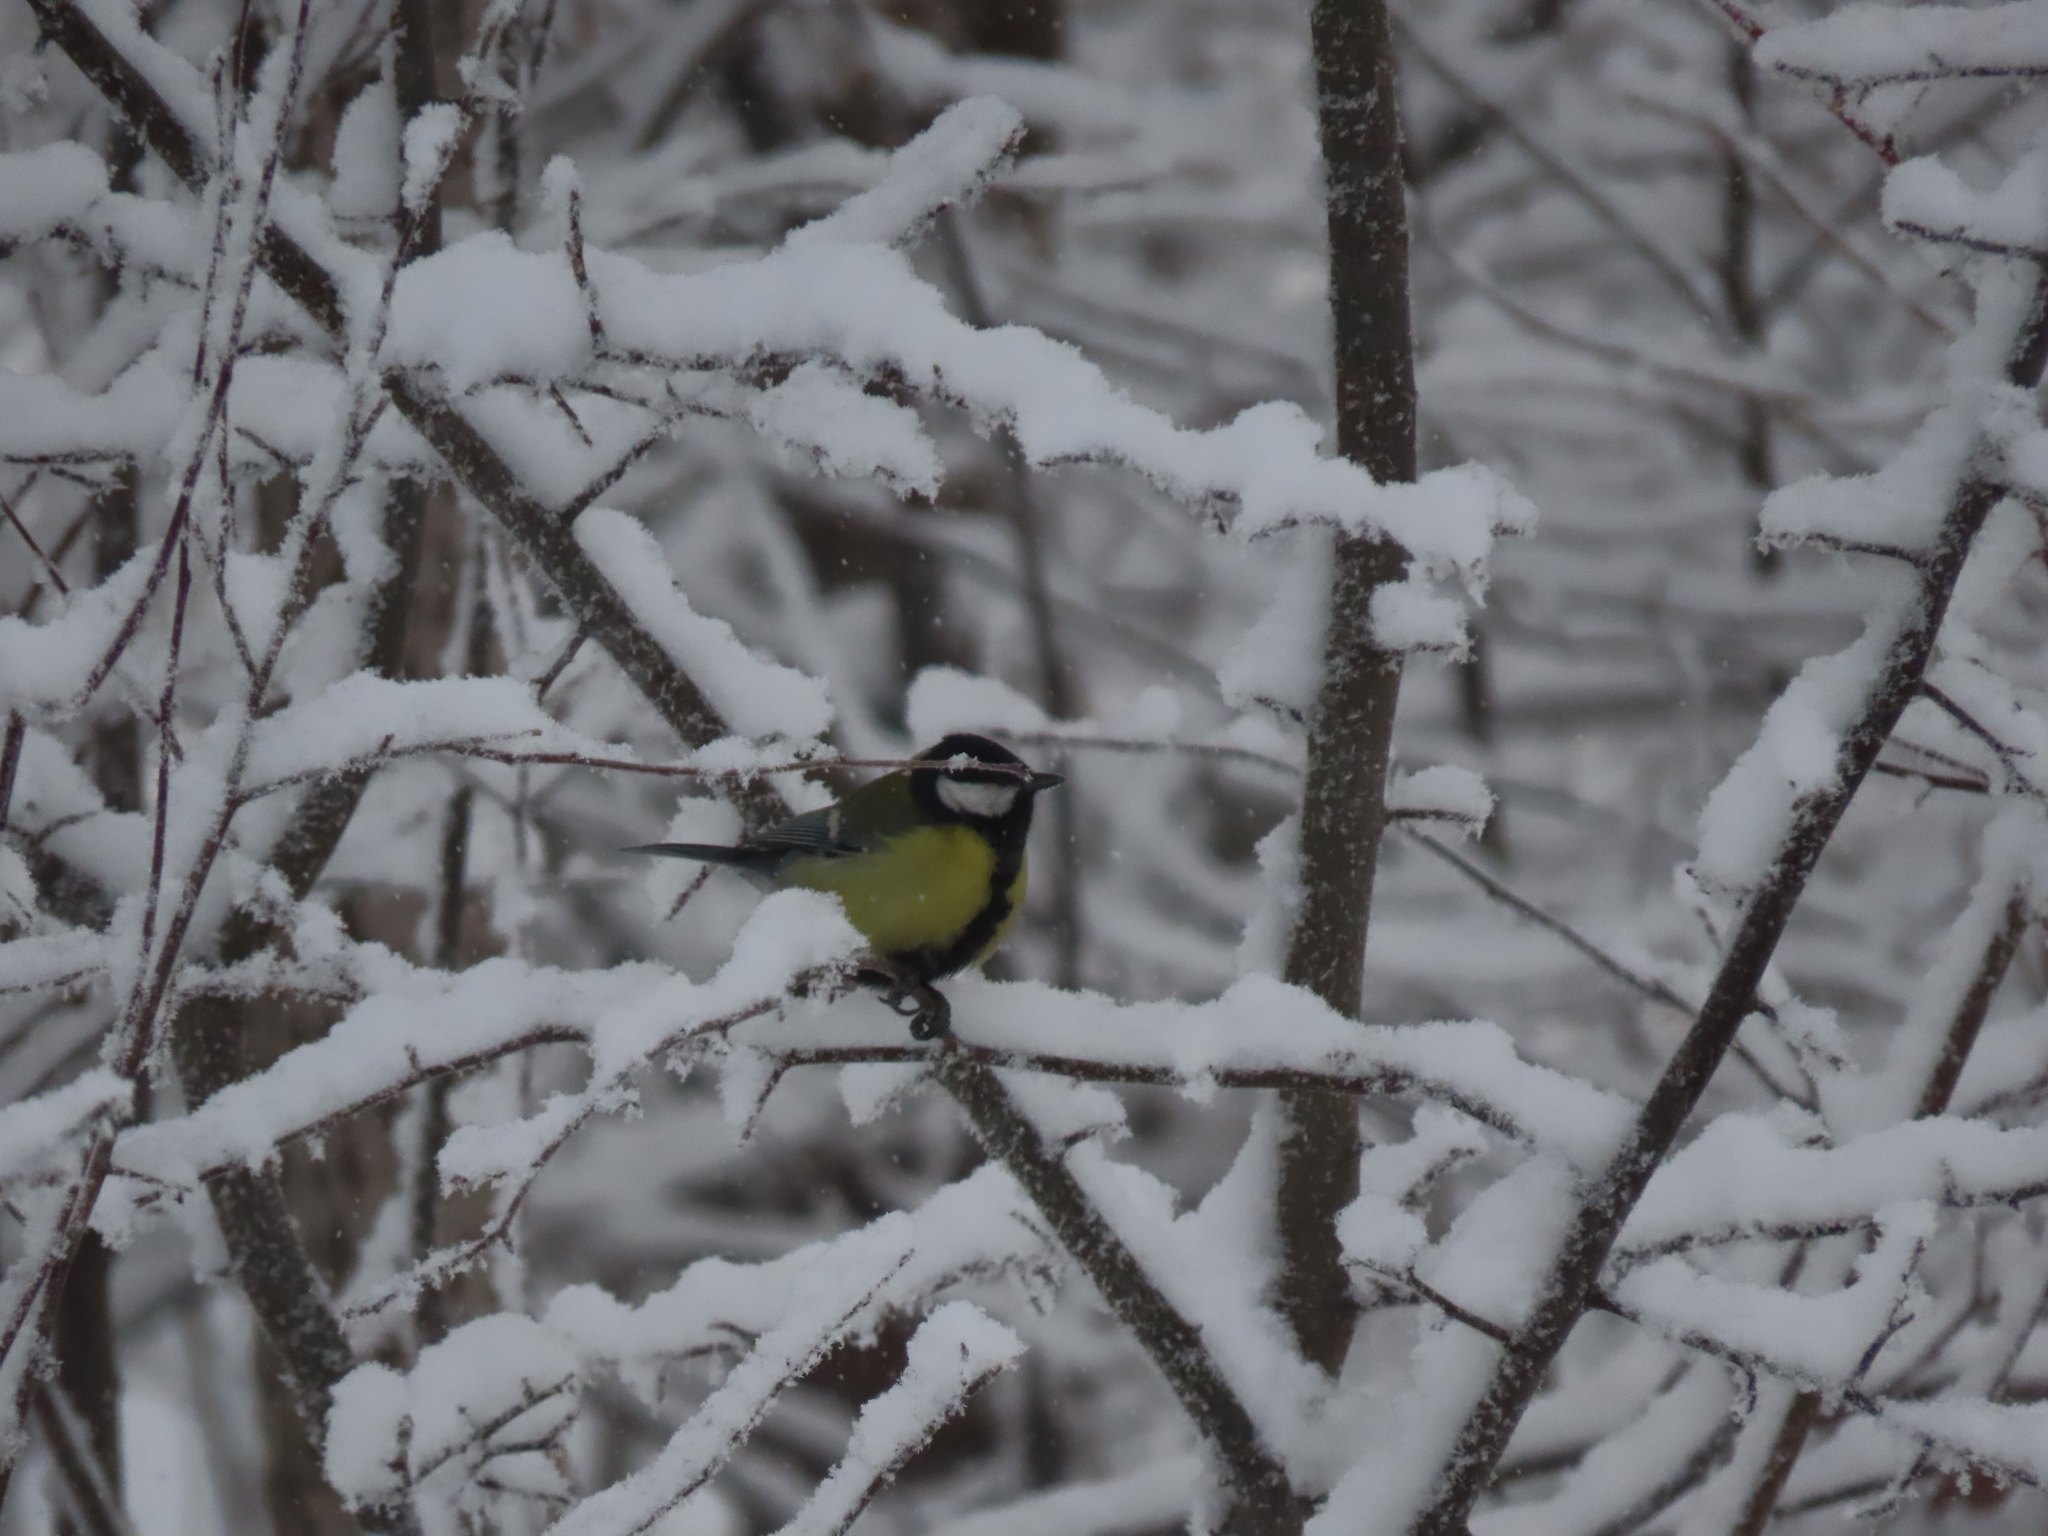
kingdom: Animalia
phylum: Chordata
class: Aves
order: Passeriformes
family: Paridae
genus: Parus
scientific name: Parus major
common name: Great tit
